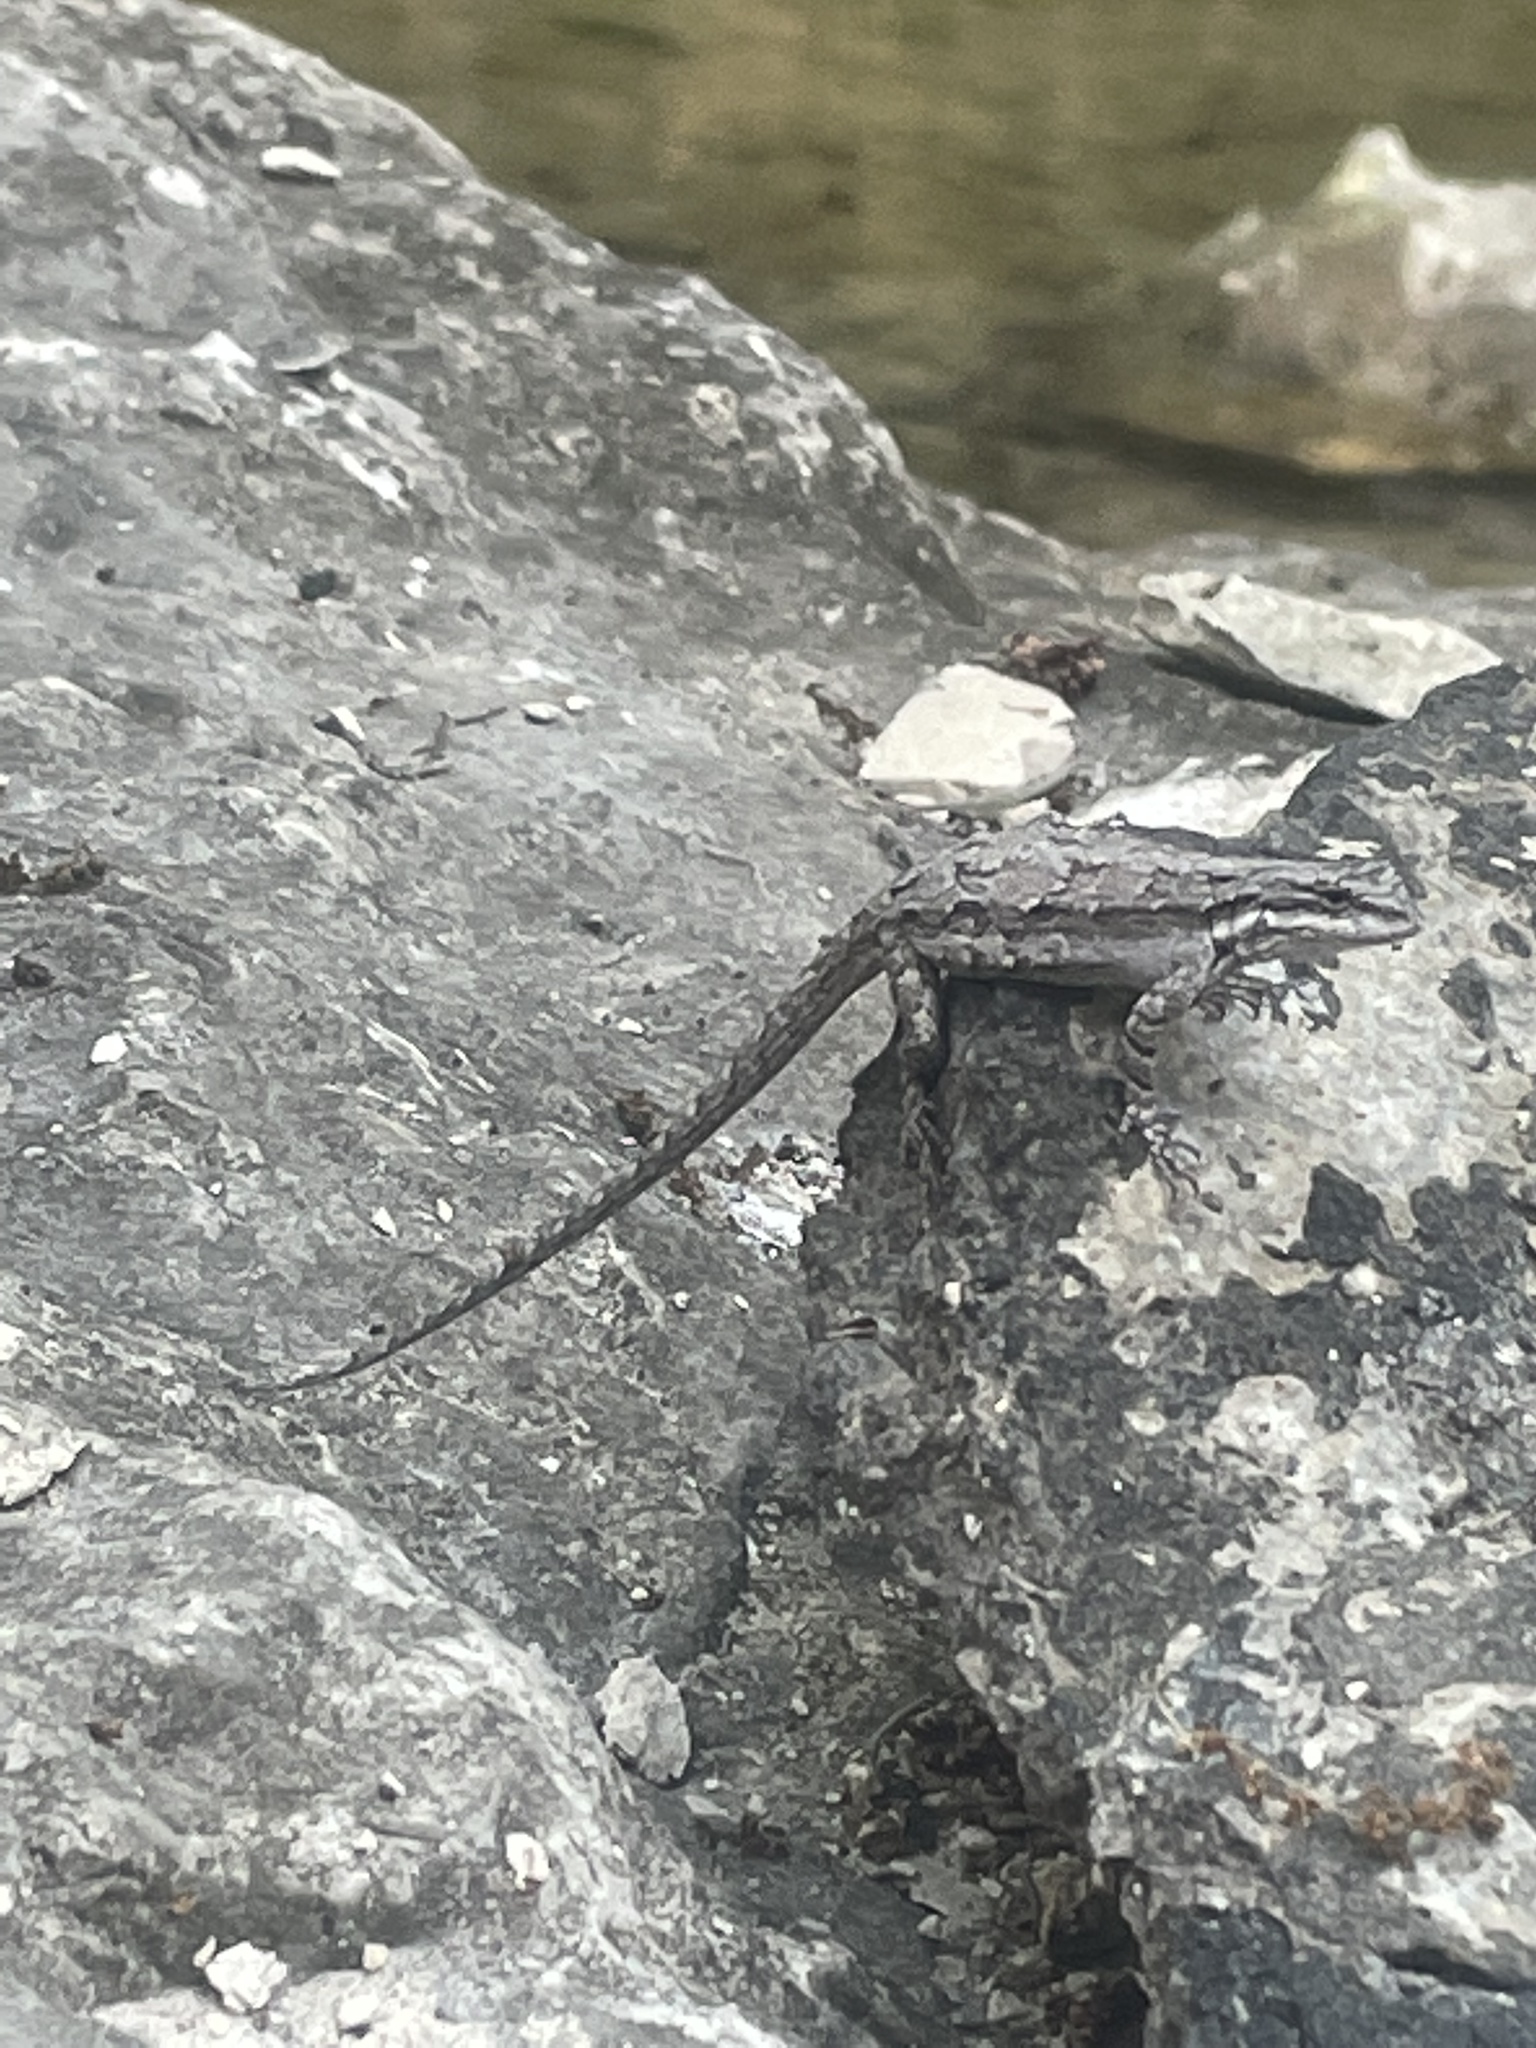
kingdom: Animalia
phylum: Chordata
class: Squamata
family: Phrynosomatidae
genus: Urosaurus
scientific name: Urosaurus ornatus
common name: Ornate tree lizard
